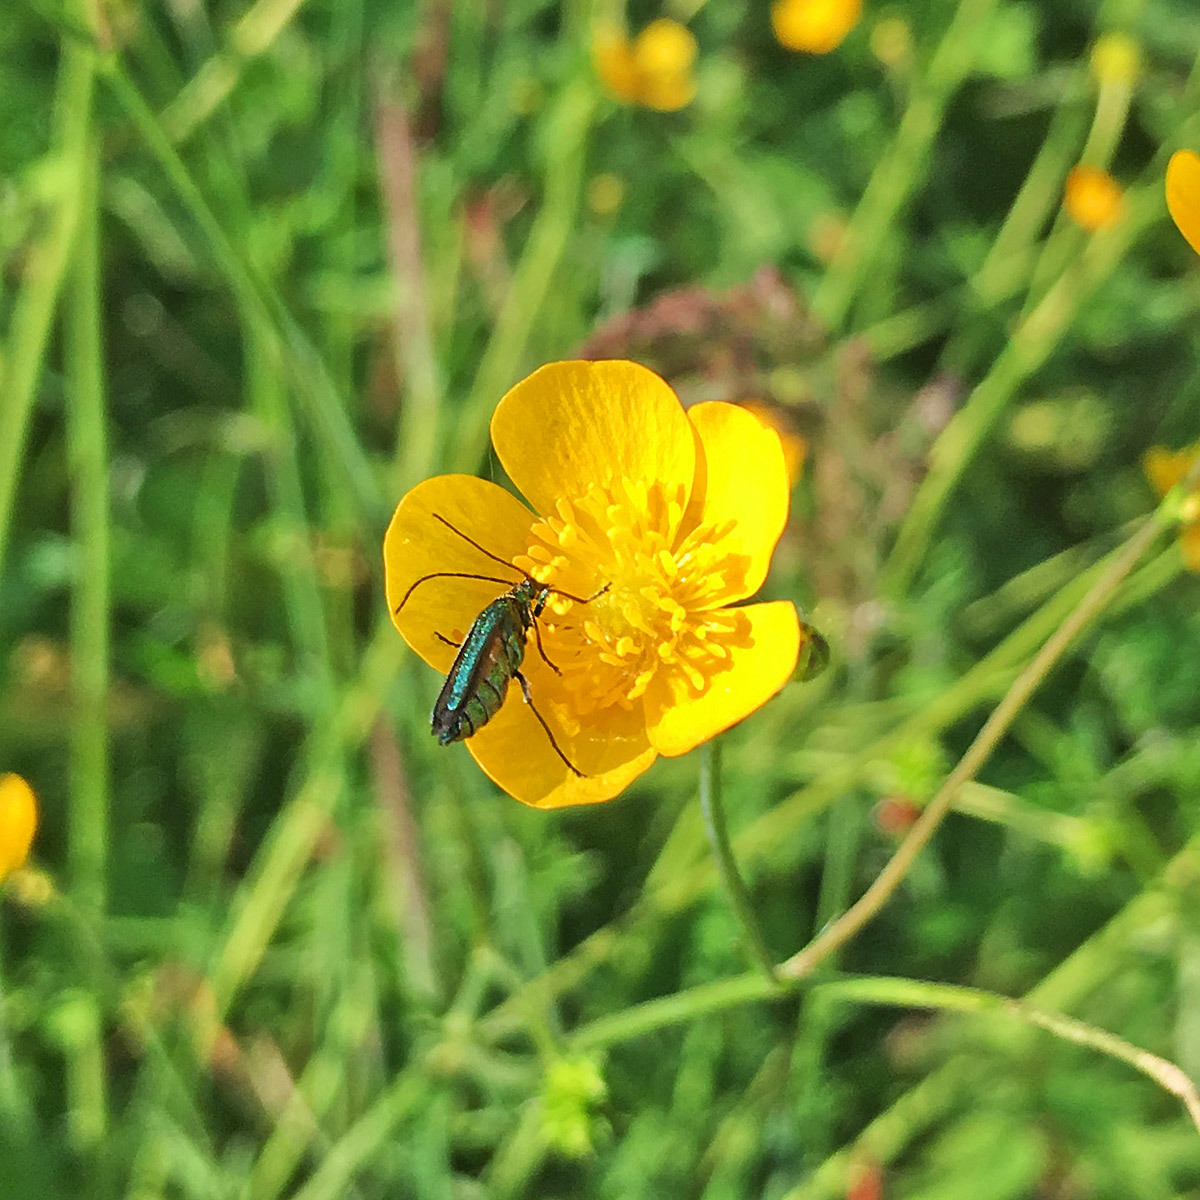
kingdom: Animalia
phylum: Arthropoda
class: Insecta
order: Coleoptera
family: Oedemeridae
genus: Oedemera
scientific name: Oedemera nobilis
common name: Swollen-thighed beetle
